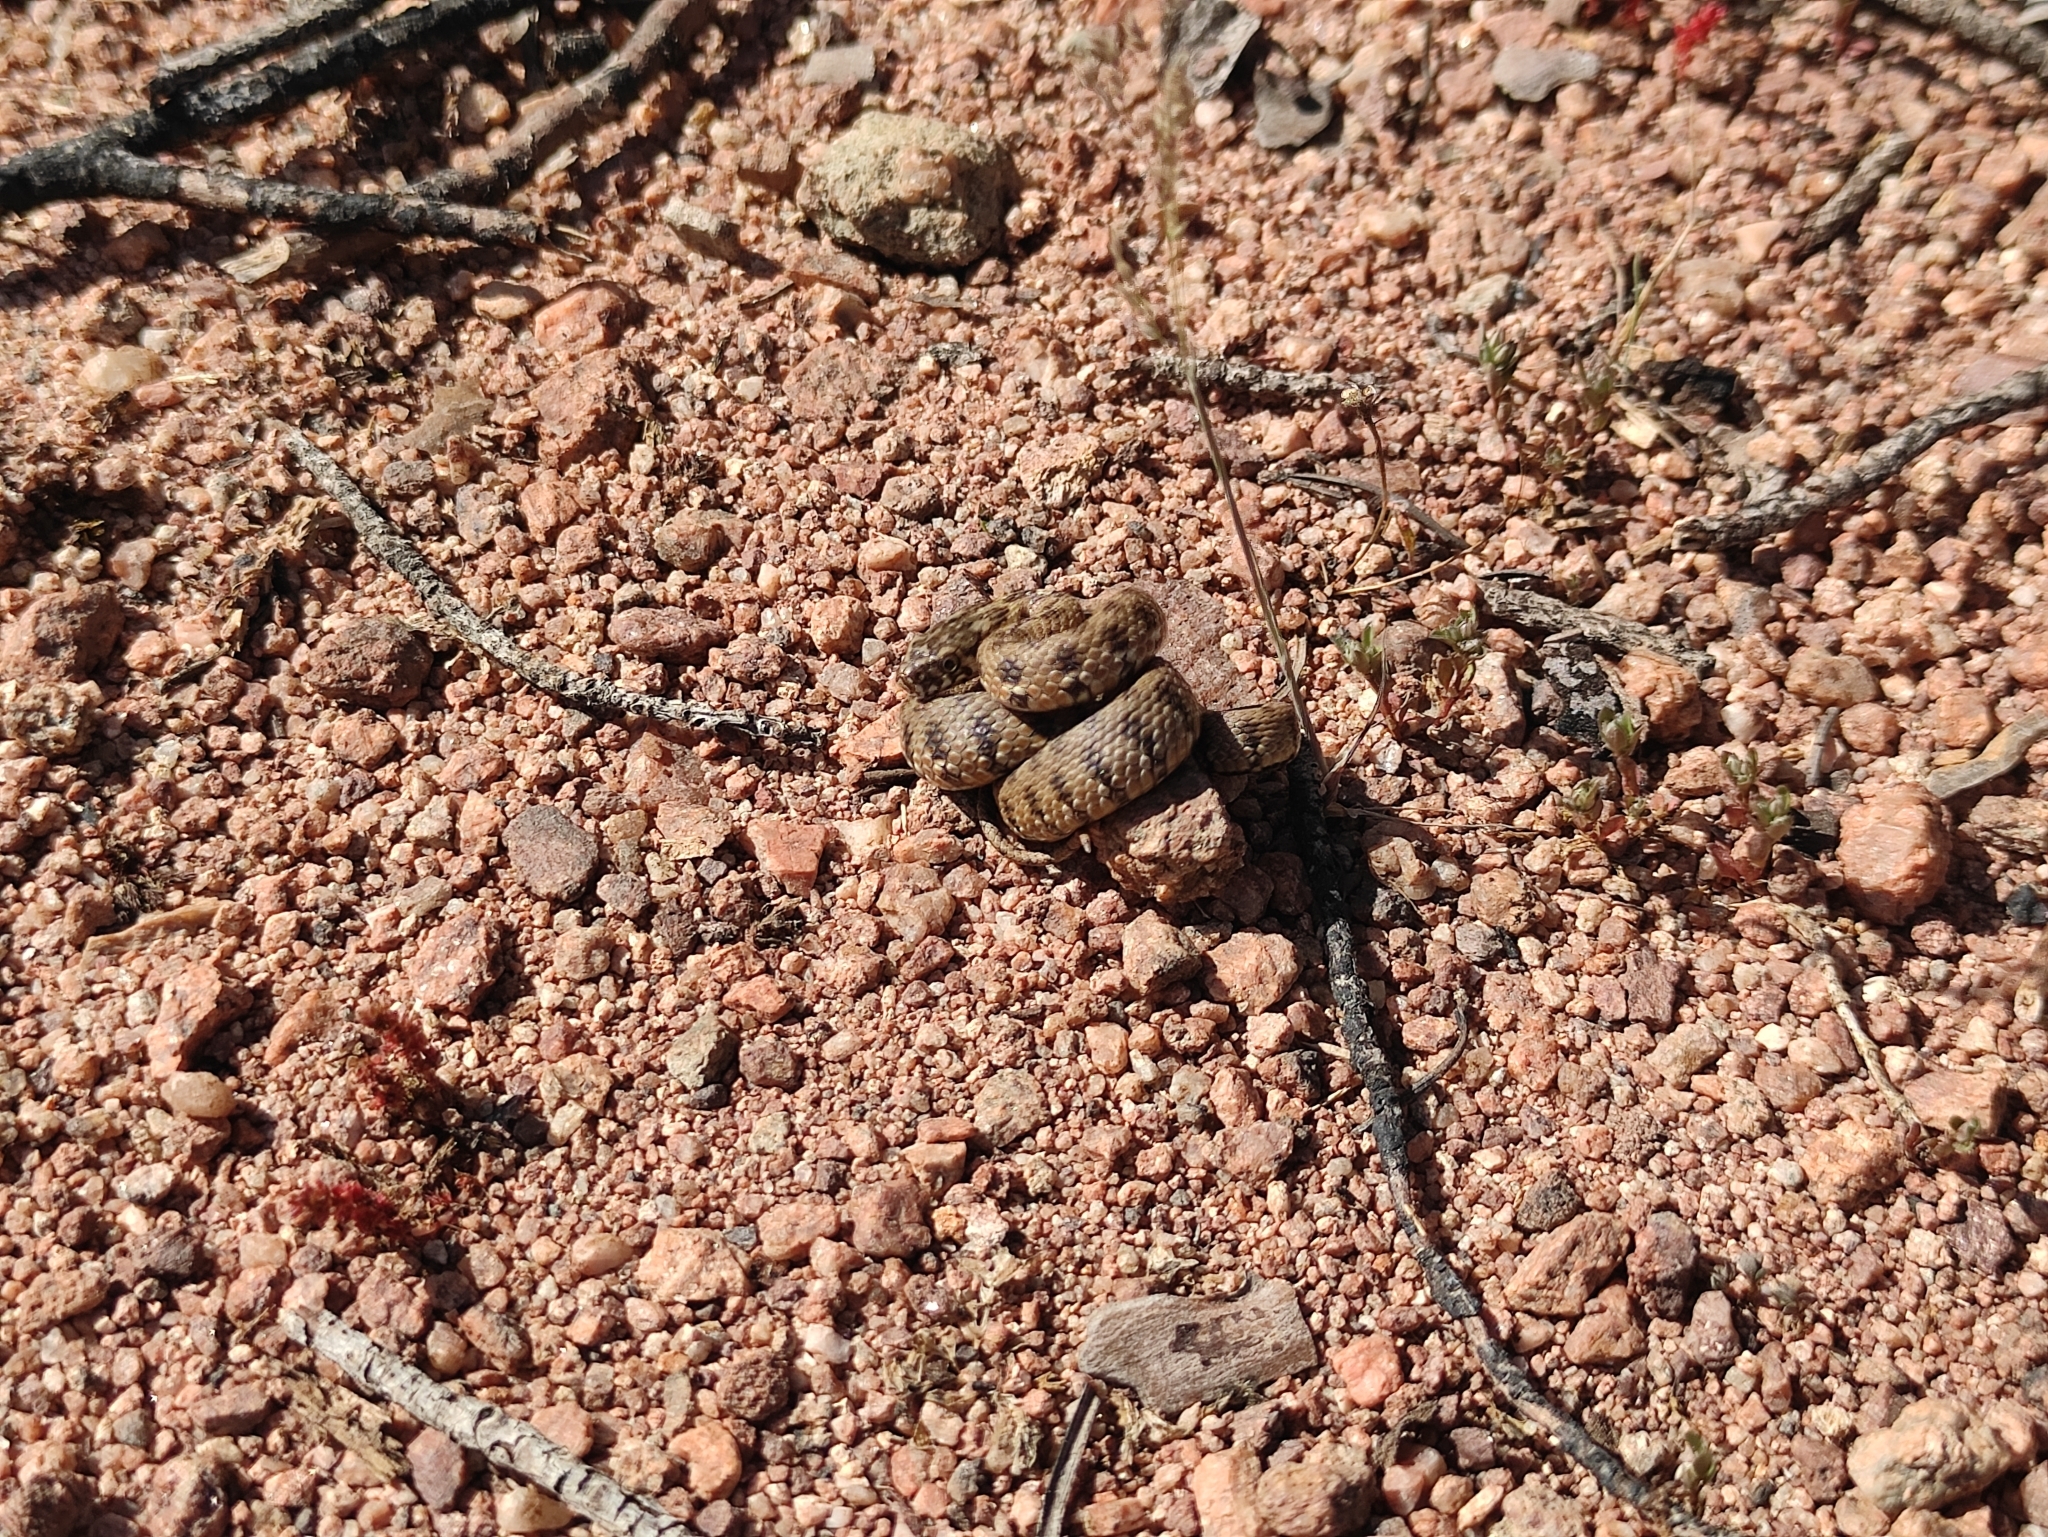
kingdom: Animalia
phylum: Chordata
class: Squamata
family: Colubridae
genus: Natrix
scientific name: Natrix maura
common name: Viperine water snake
